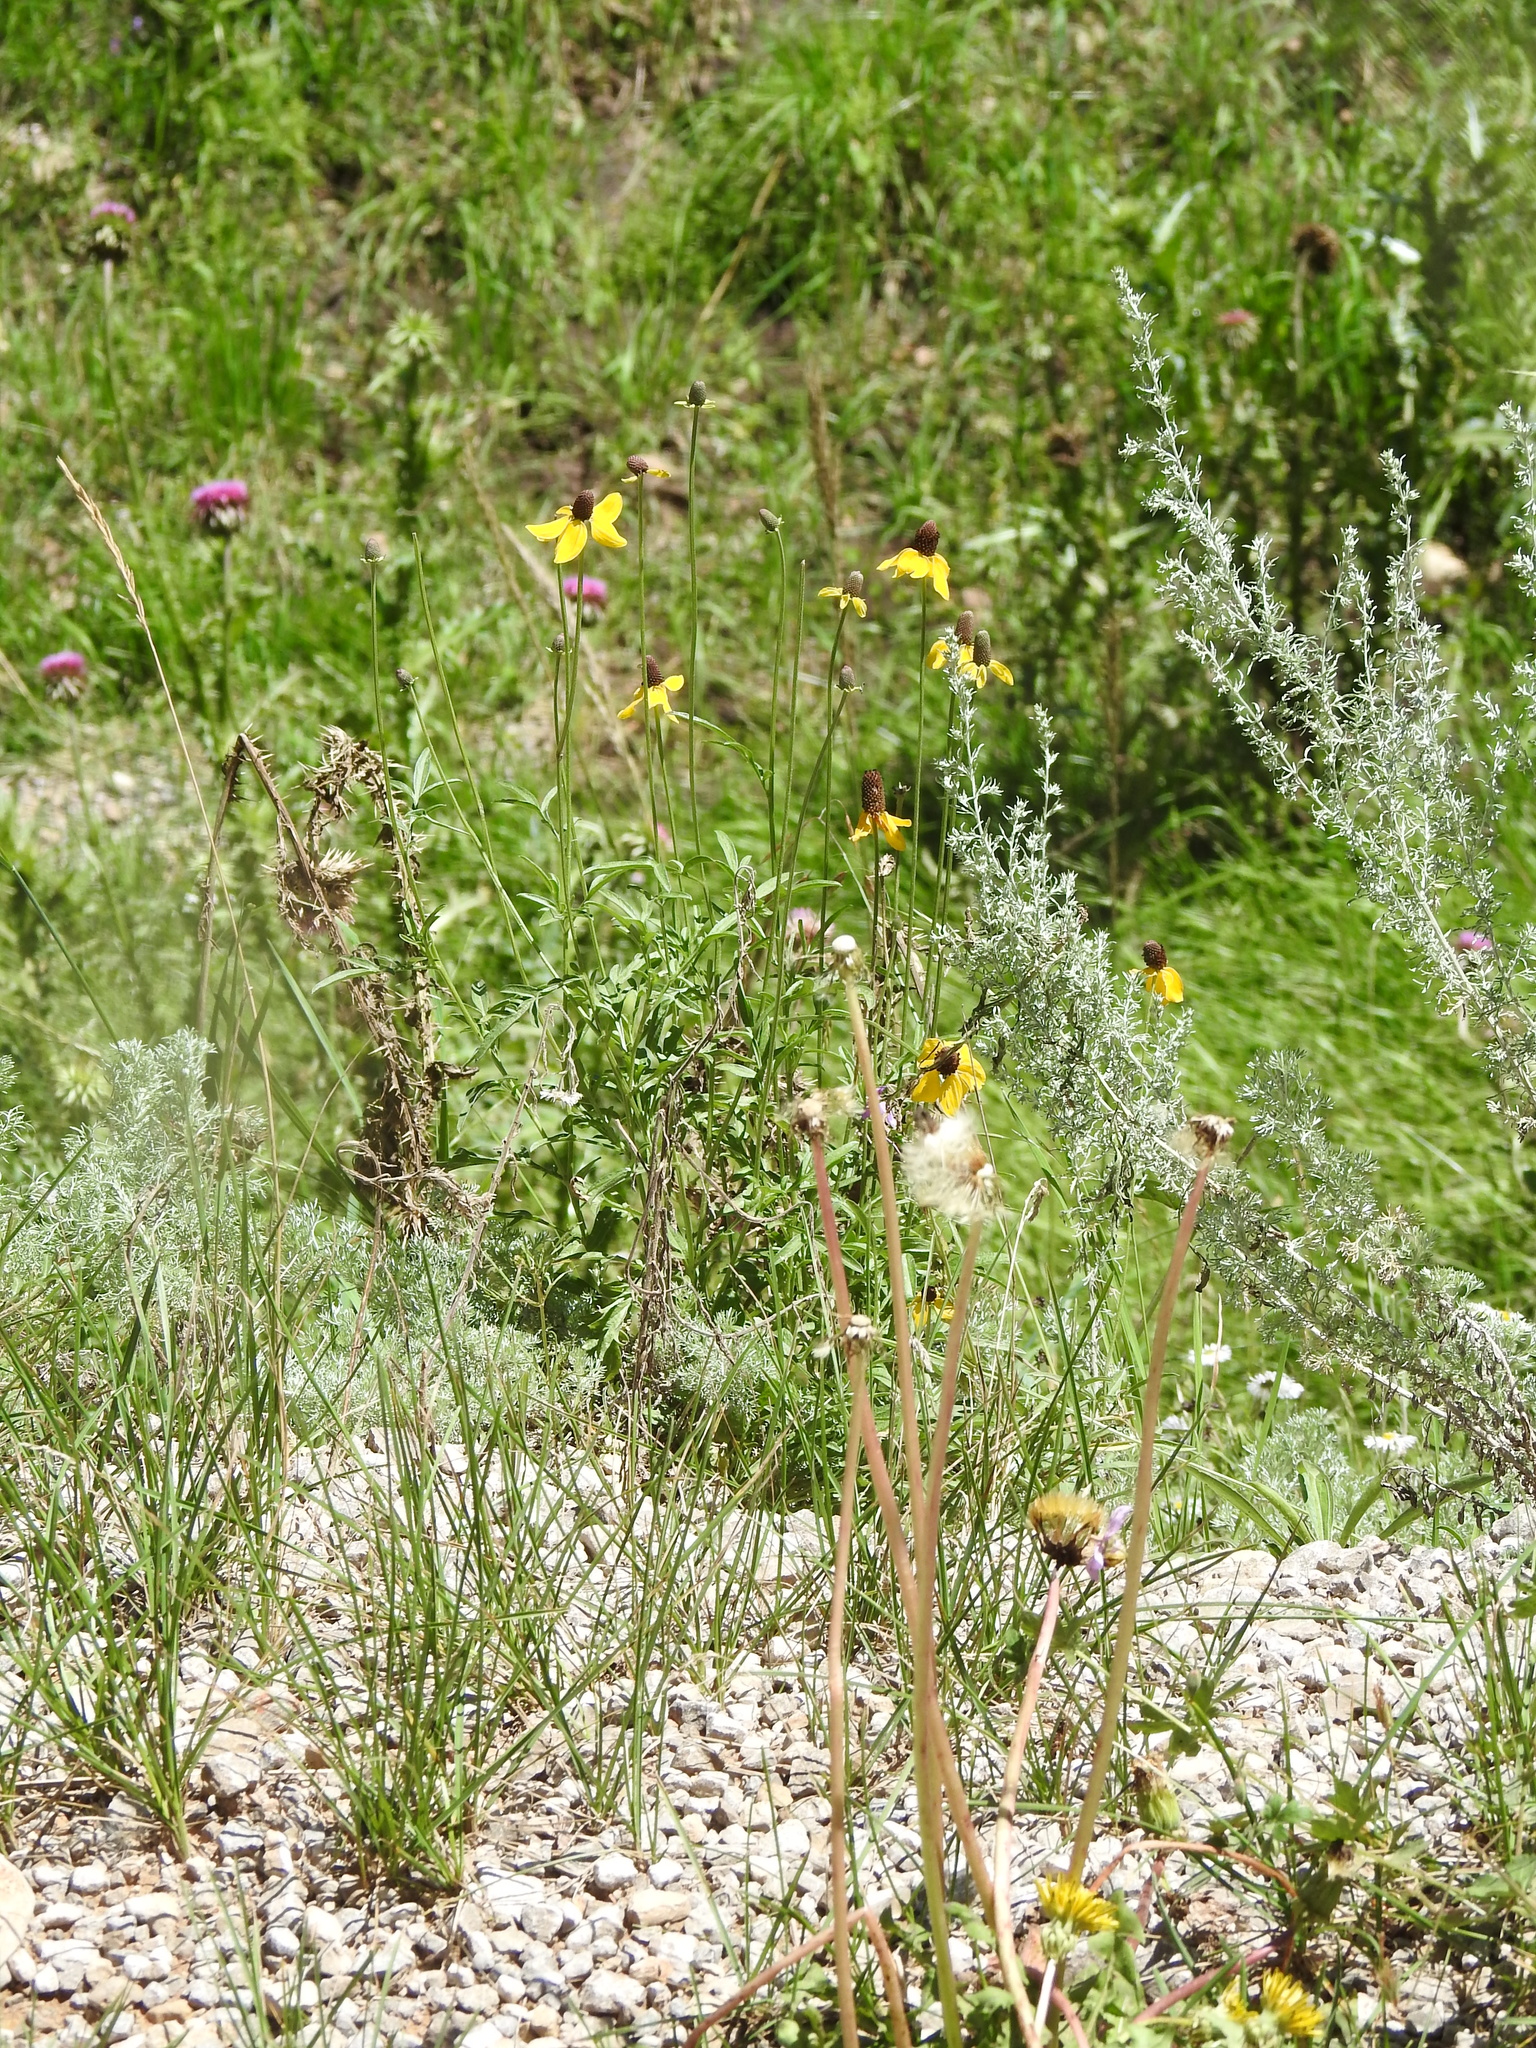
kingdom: Plantae
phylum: Tracheophyta
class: Magnoliopsida
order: Asterales
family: Asteraceae
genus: Ratibida
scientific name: Ratibida columnifera
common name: Prairie coneflower
